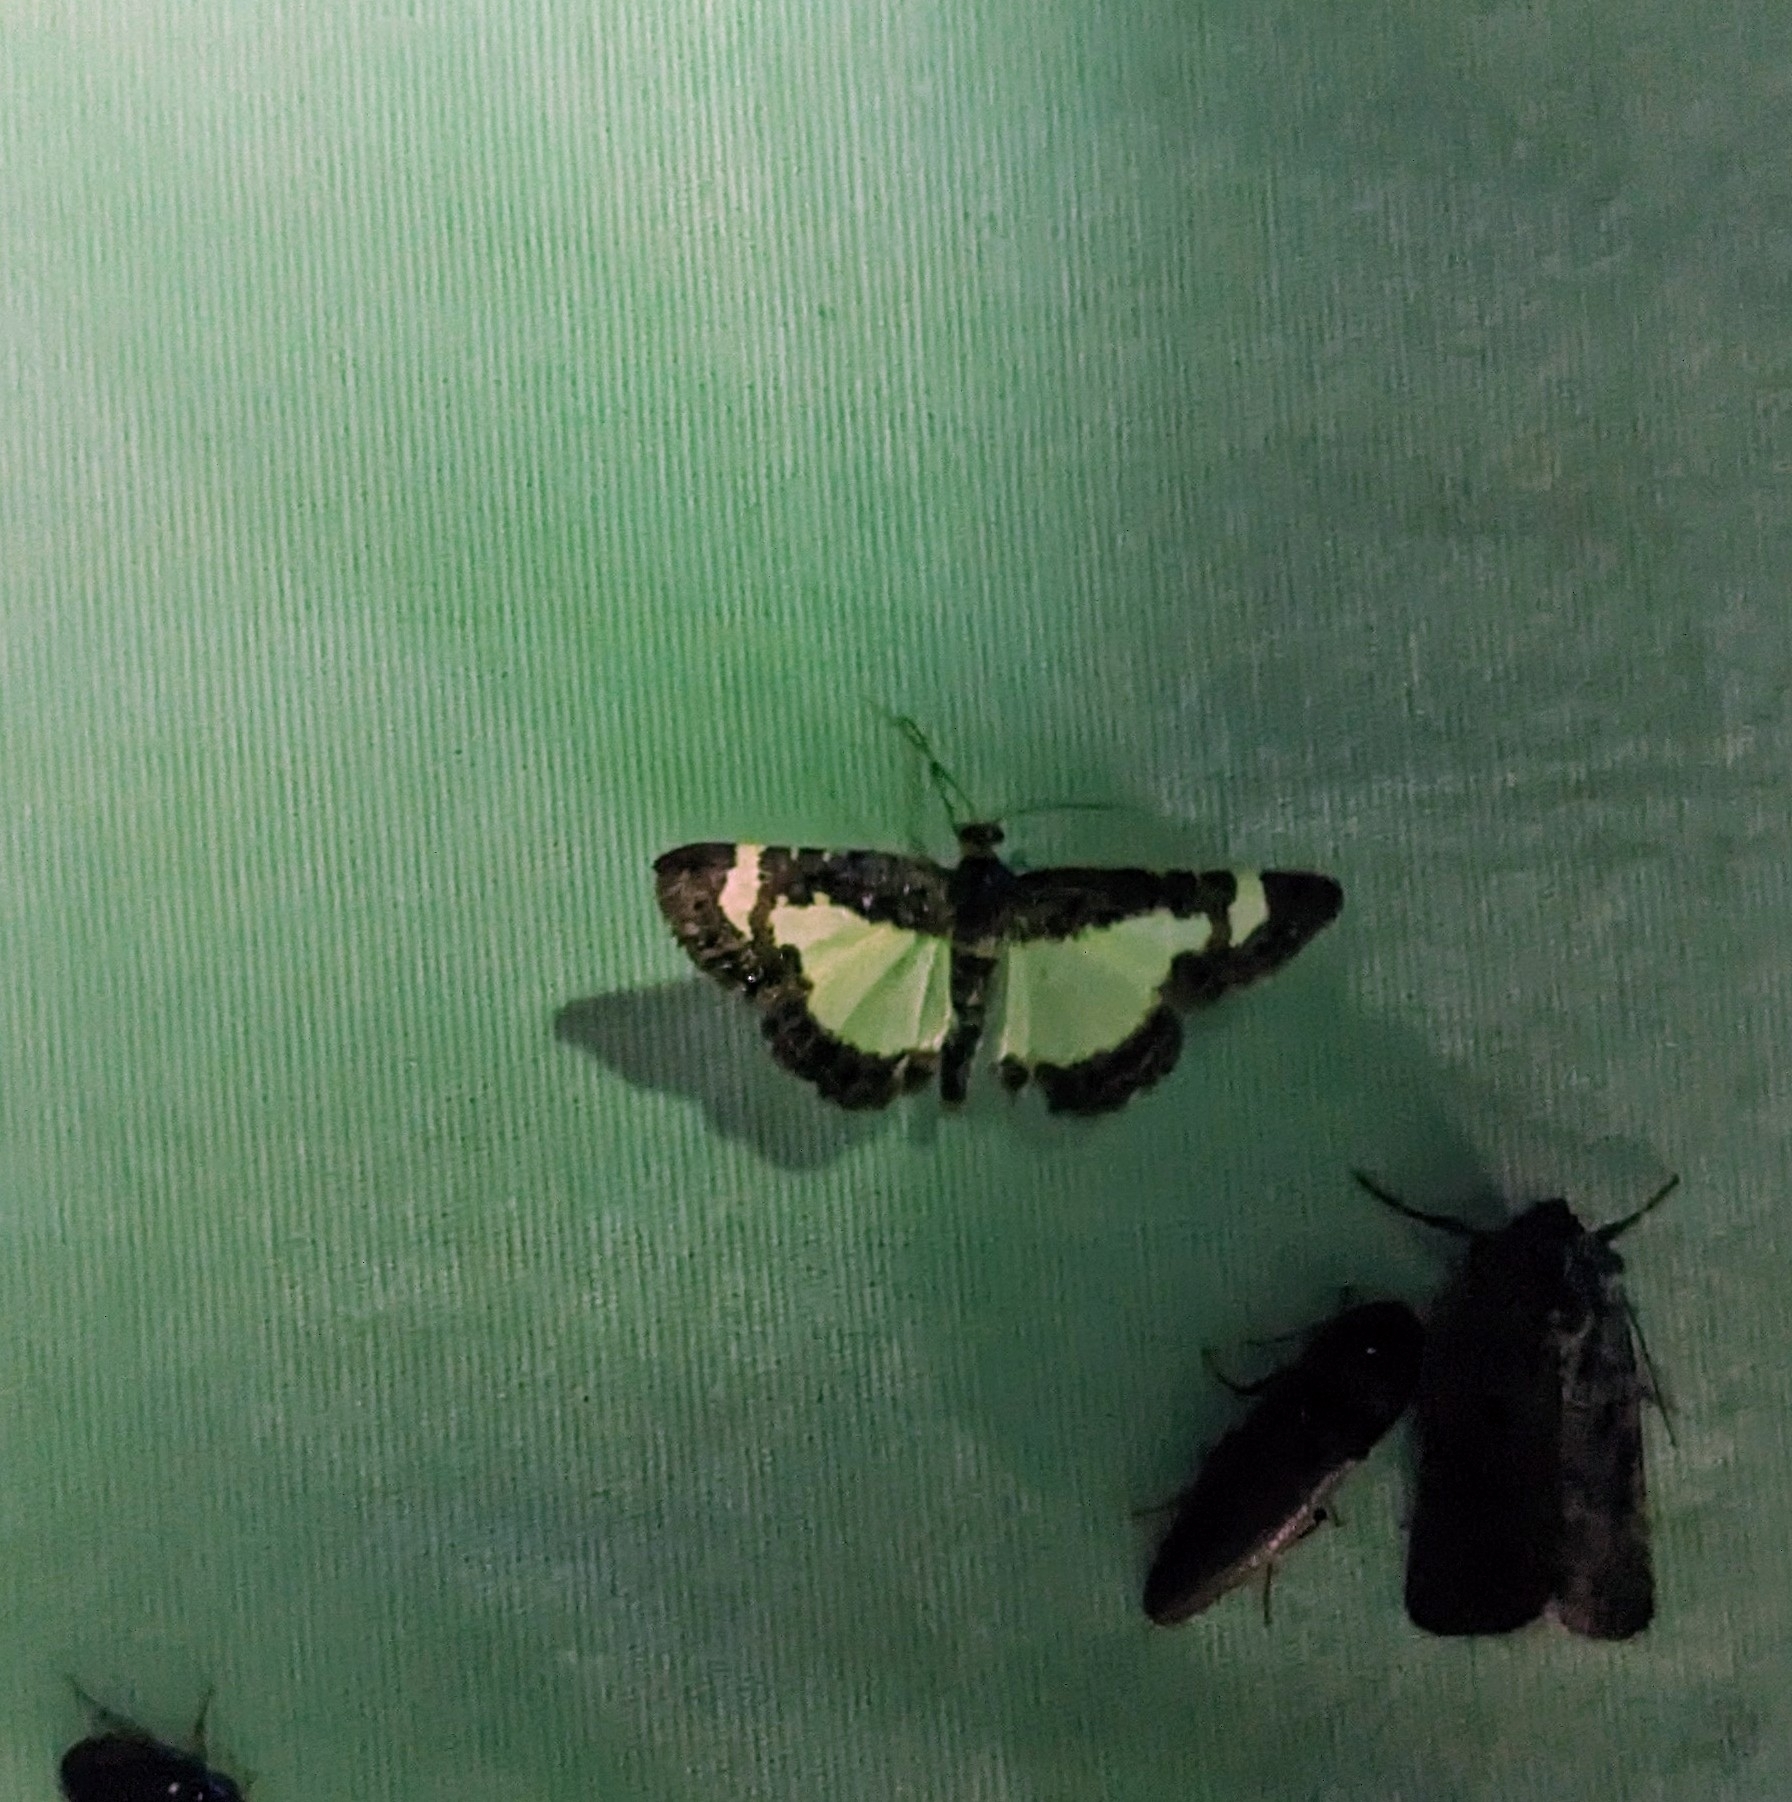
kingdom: Animalia
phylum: Arthropoda
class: Insecta
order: Lepidoptera
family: Geometridae
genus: Heliomata
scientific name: Heliomata cycladata
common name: Common spring moth
